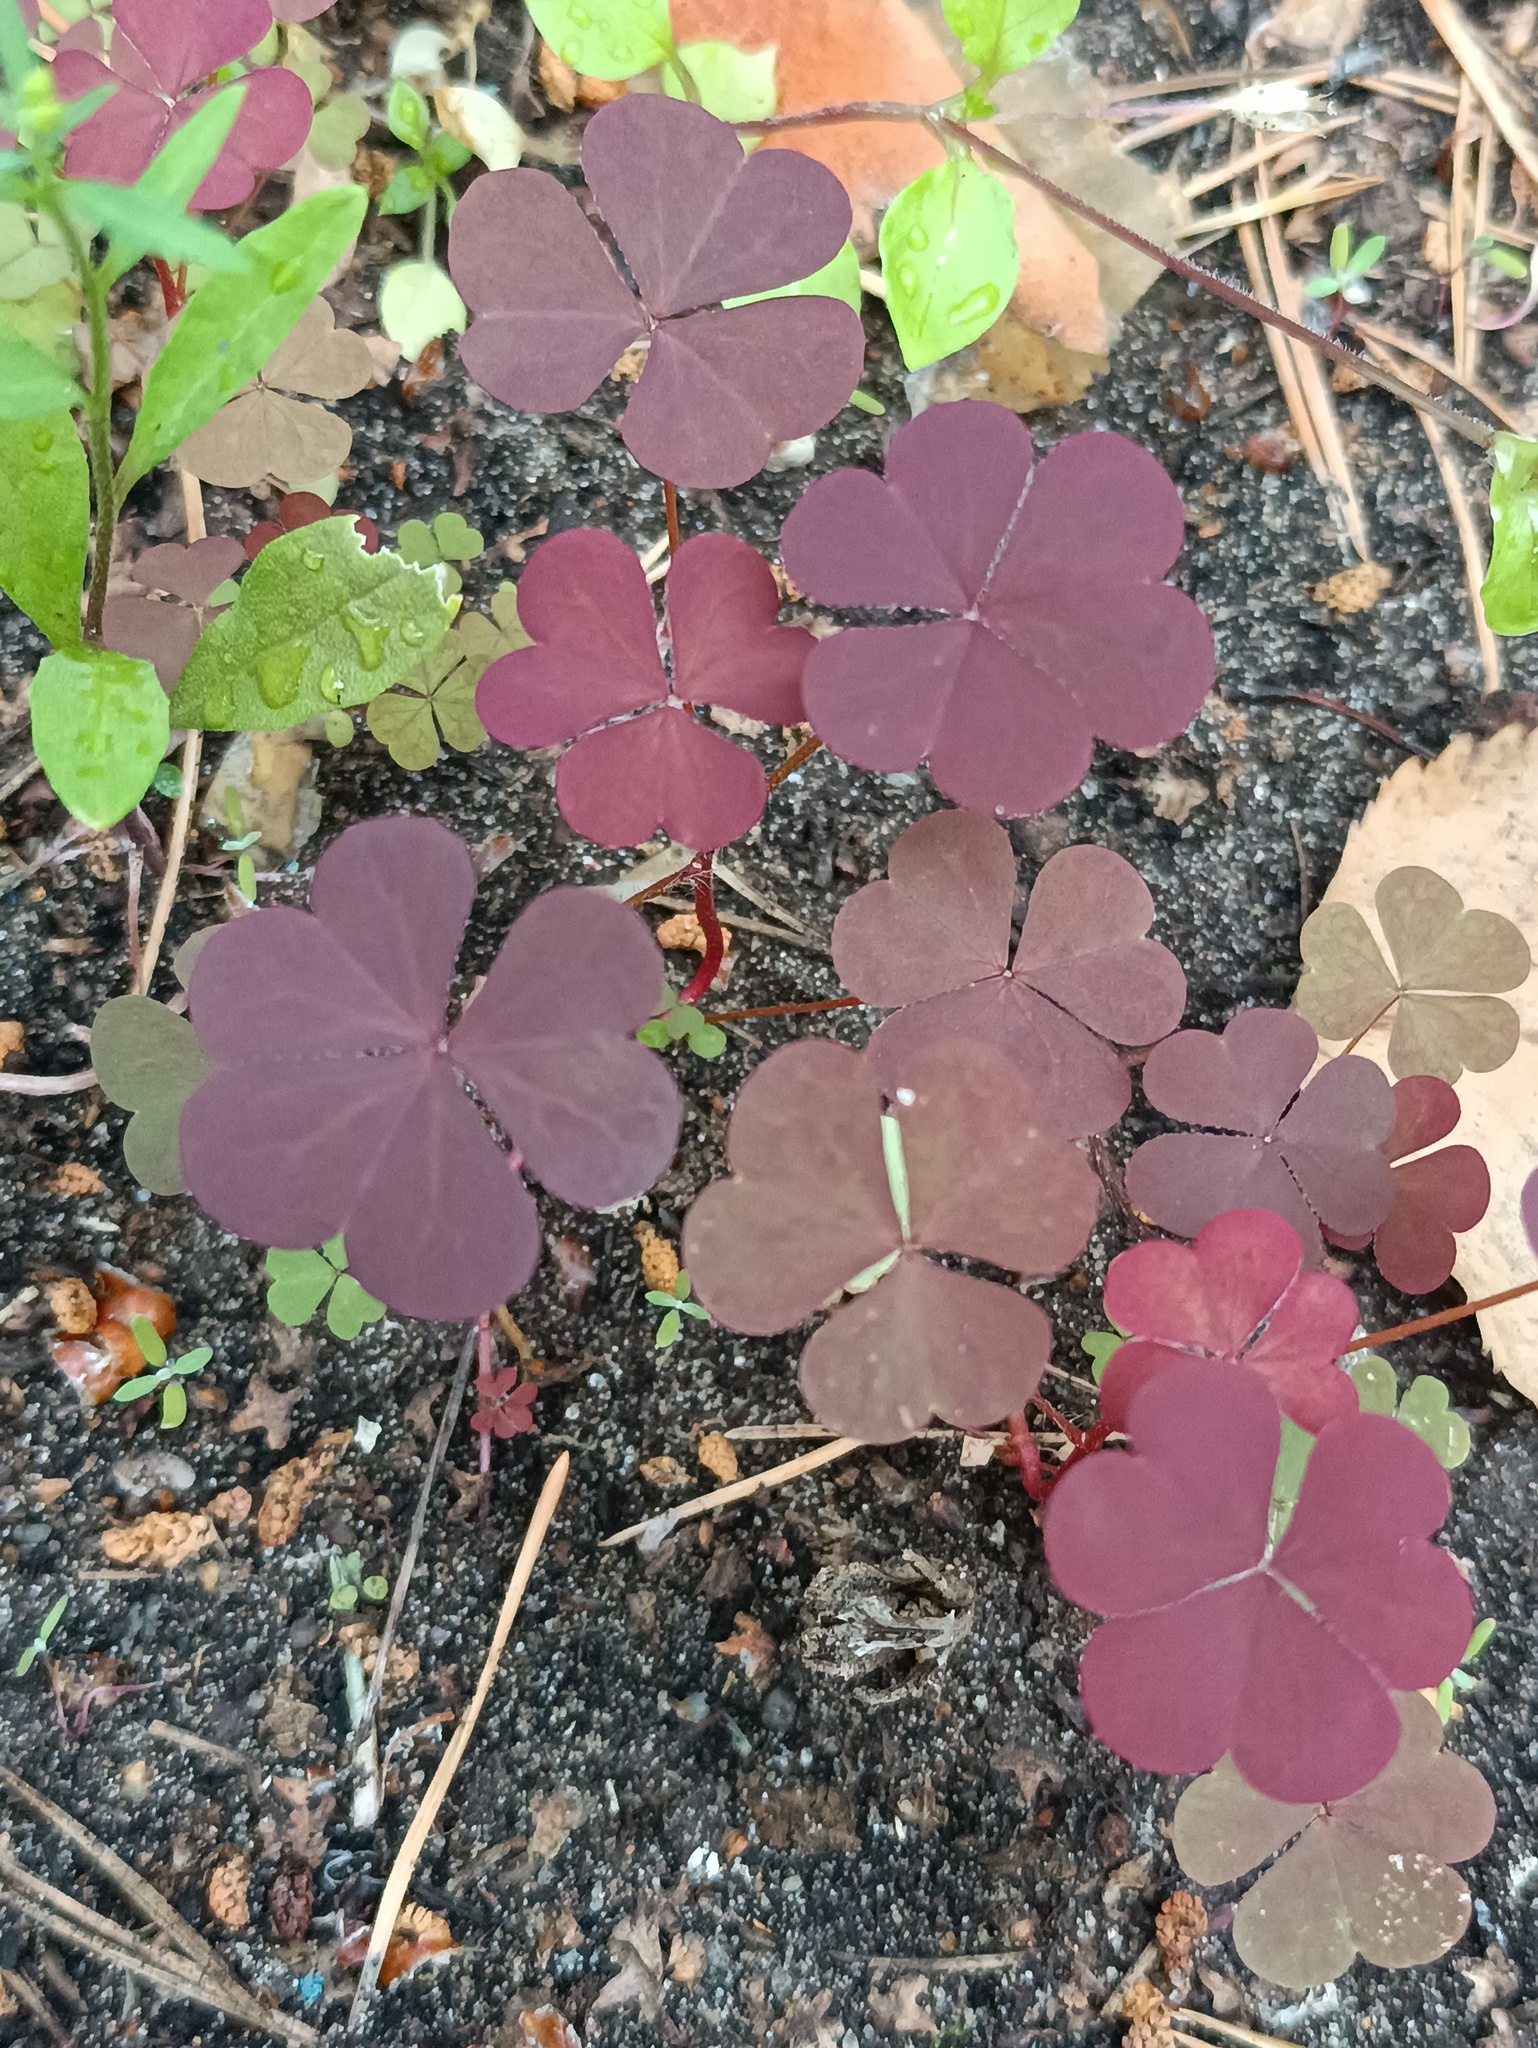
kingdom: Plantae
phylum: Tracheophyta
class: Magnoliopsida
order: Oxalidales
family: Oxalidaceae
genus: Oxalis
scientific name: Oxalis stricta
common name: Upright yellow-sorrel
